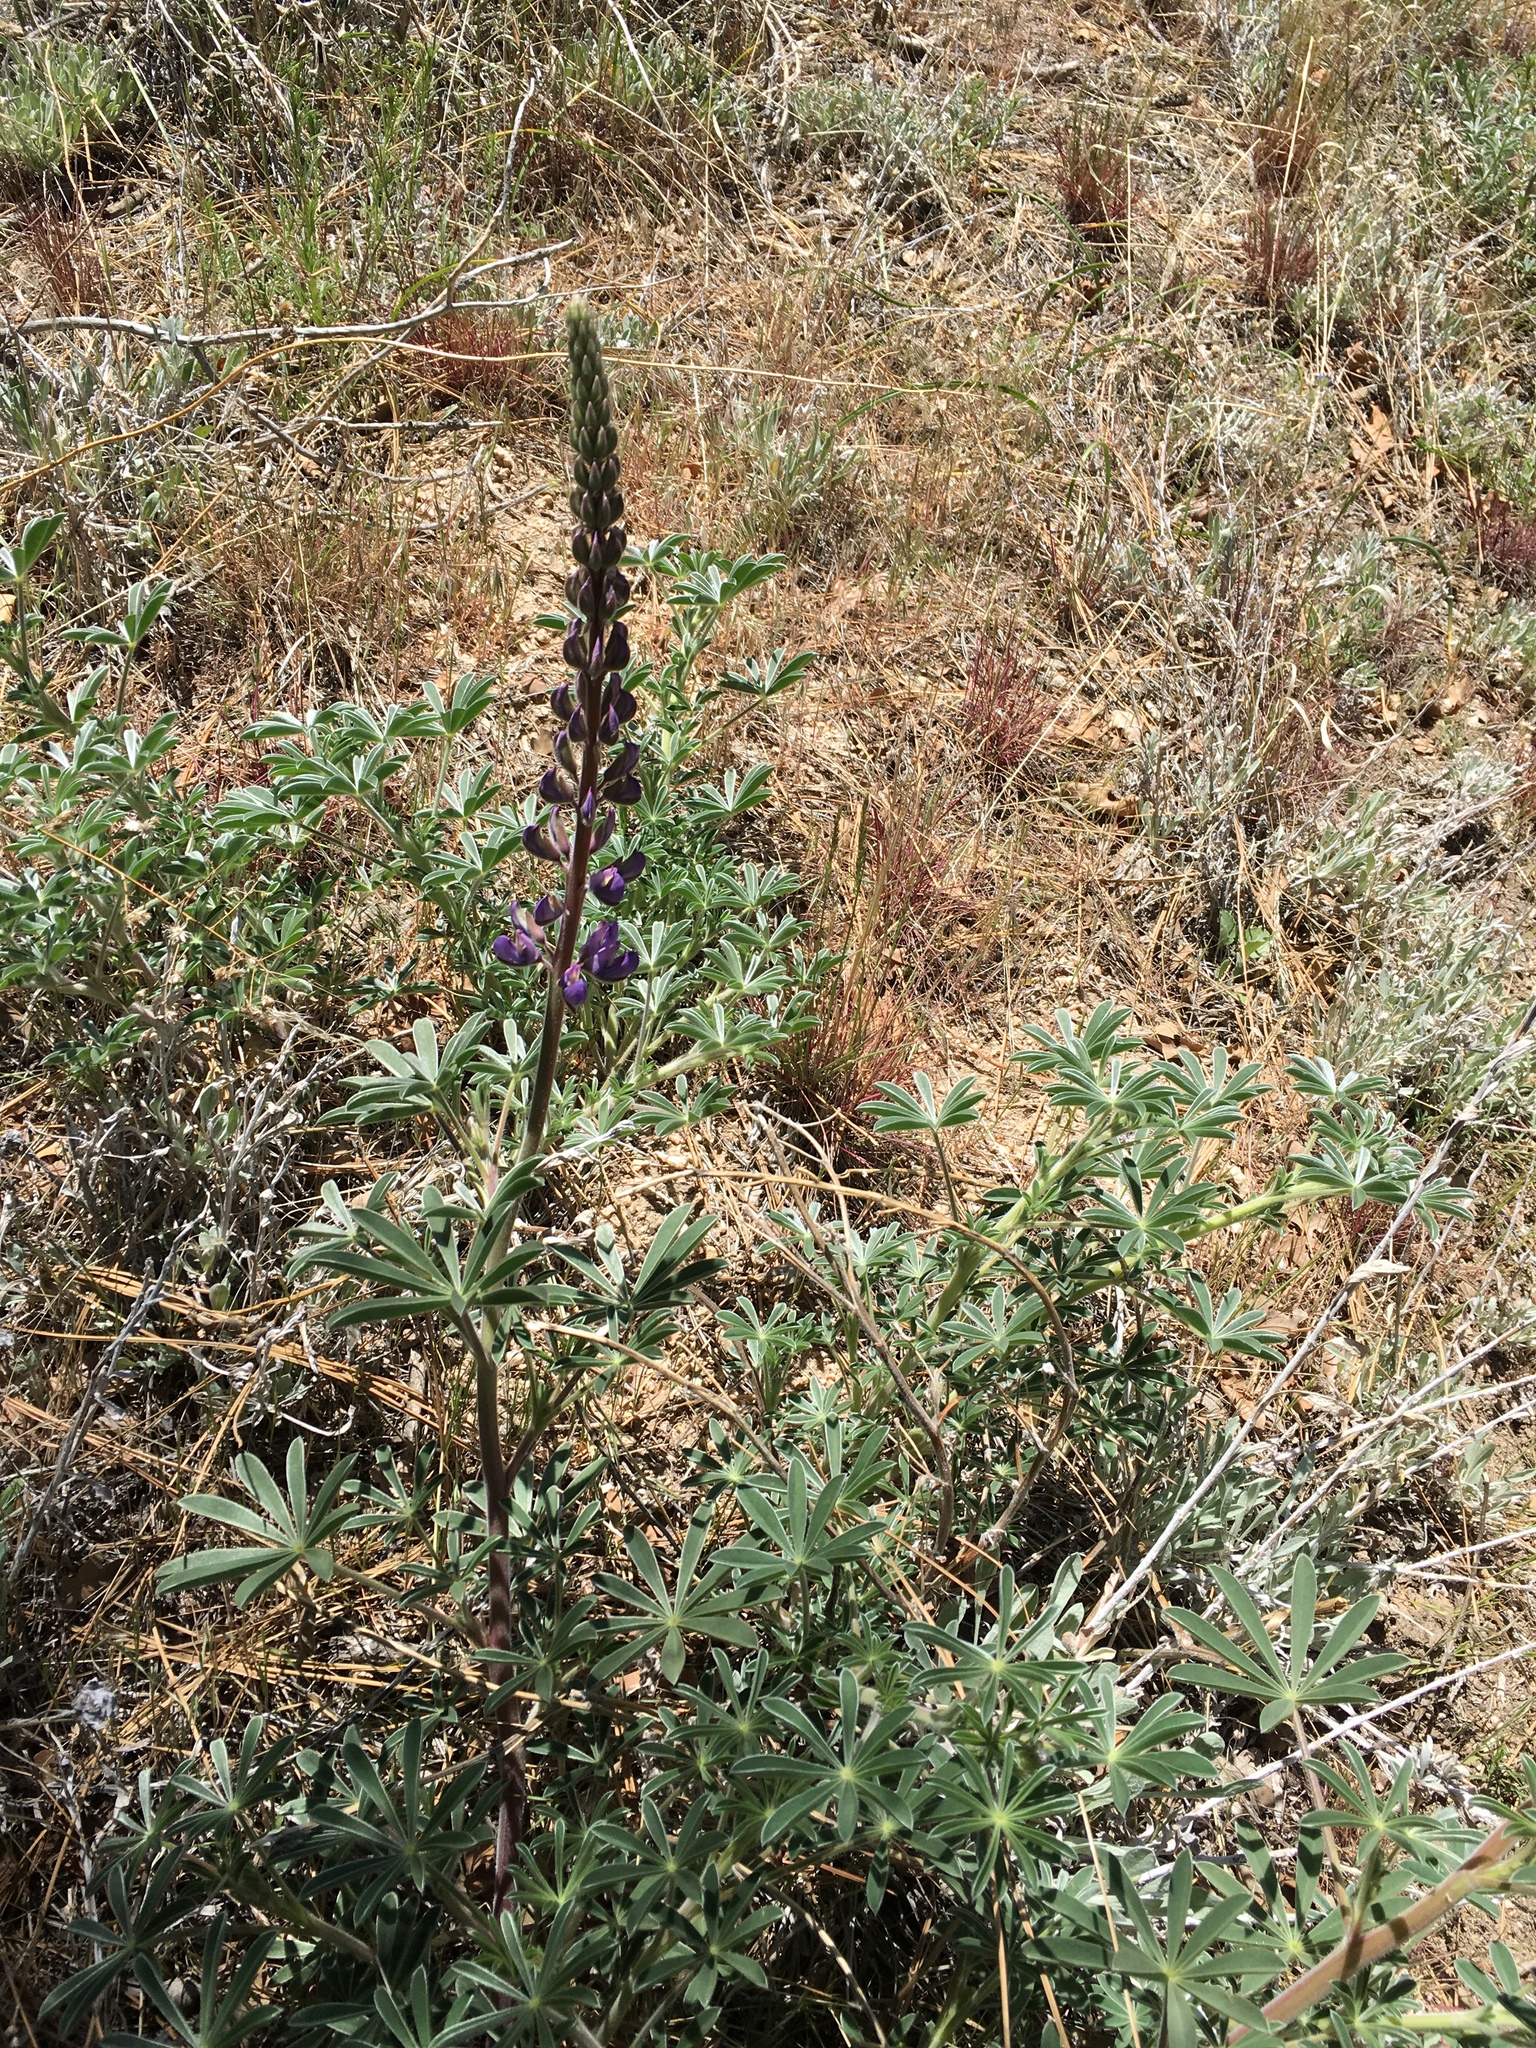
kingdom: Plantae
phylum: Tracheophyta
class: Magnoliopsida
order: Fabales
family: Fabaceae
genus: Lupinus
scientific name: Lupinus succulentus
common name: Arroyo lupine
